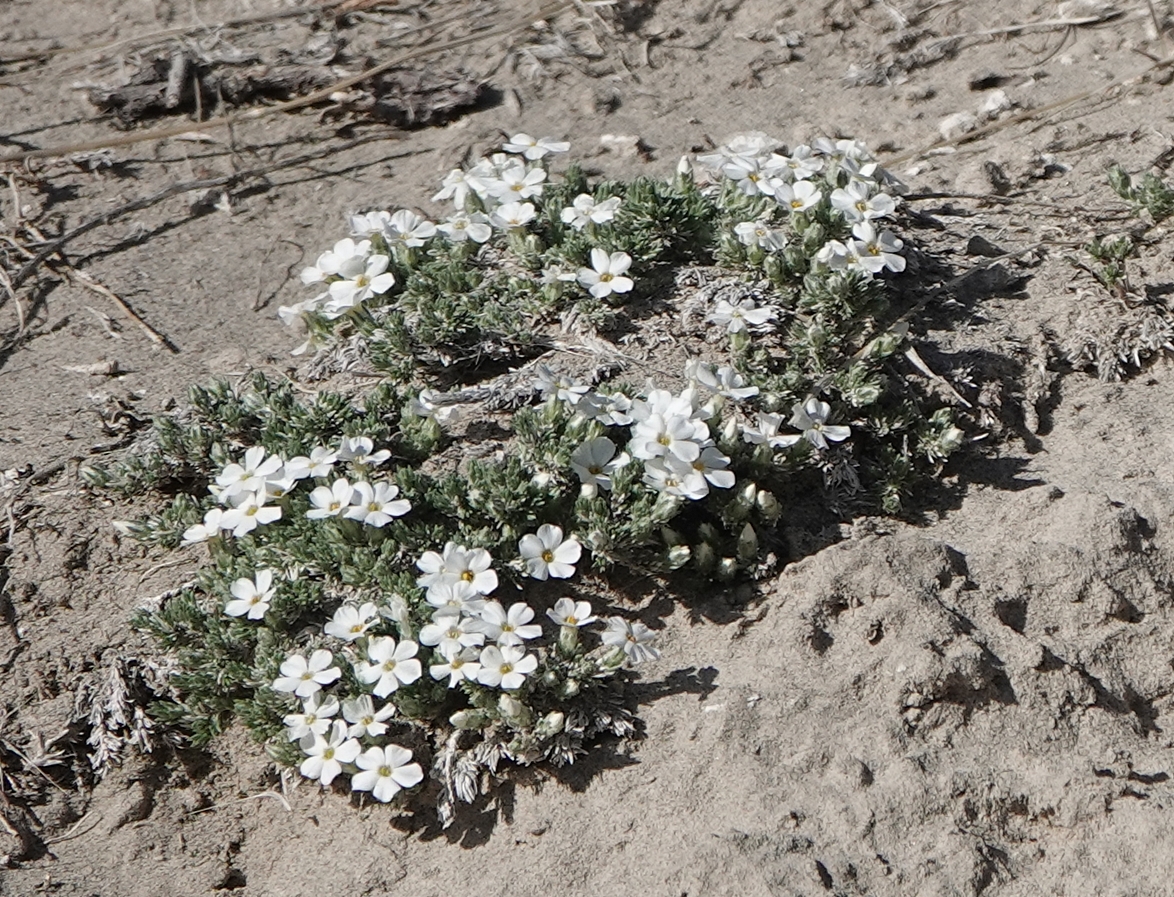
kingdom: Plantae
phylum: Tracheophyta
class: Magnoliopsida
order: Ericales
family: Polemoniaceae
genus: Phlox
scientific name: Phlox hoodii
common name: Moss phlox
